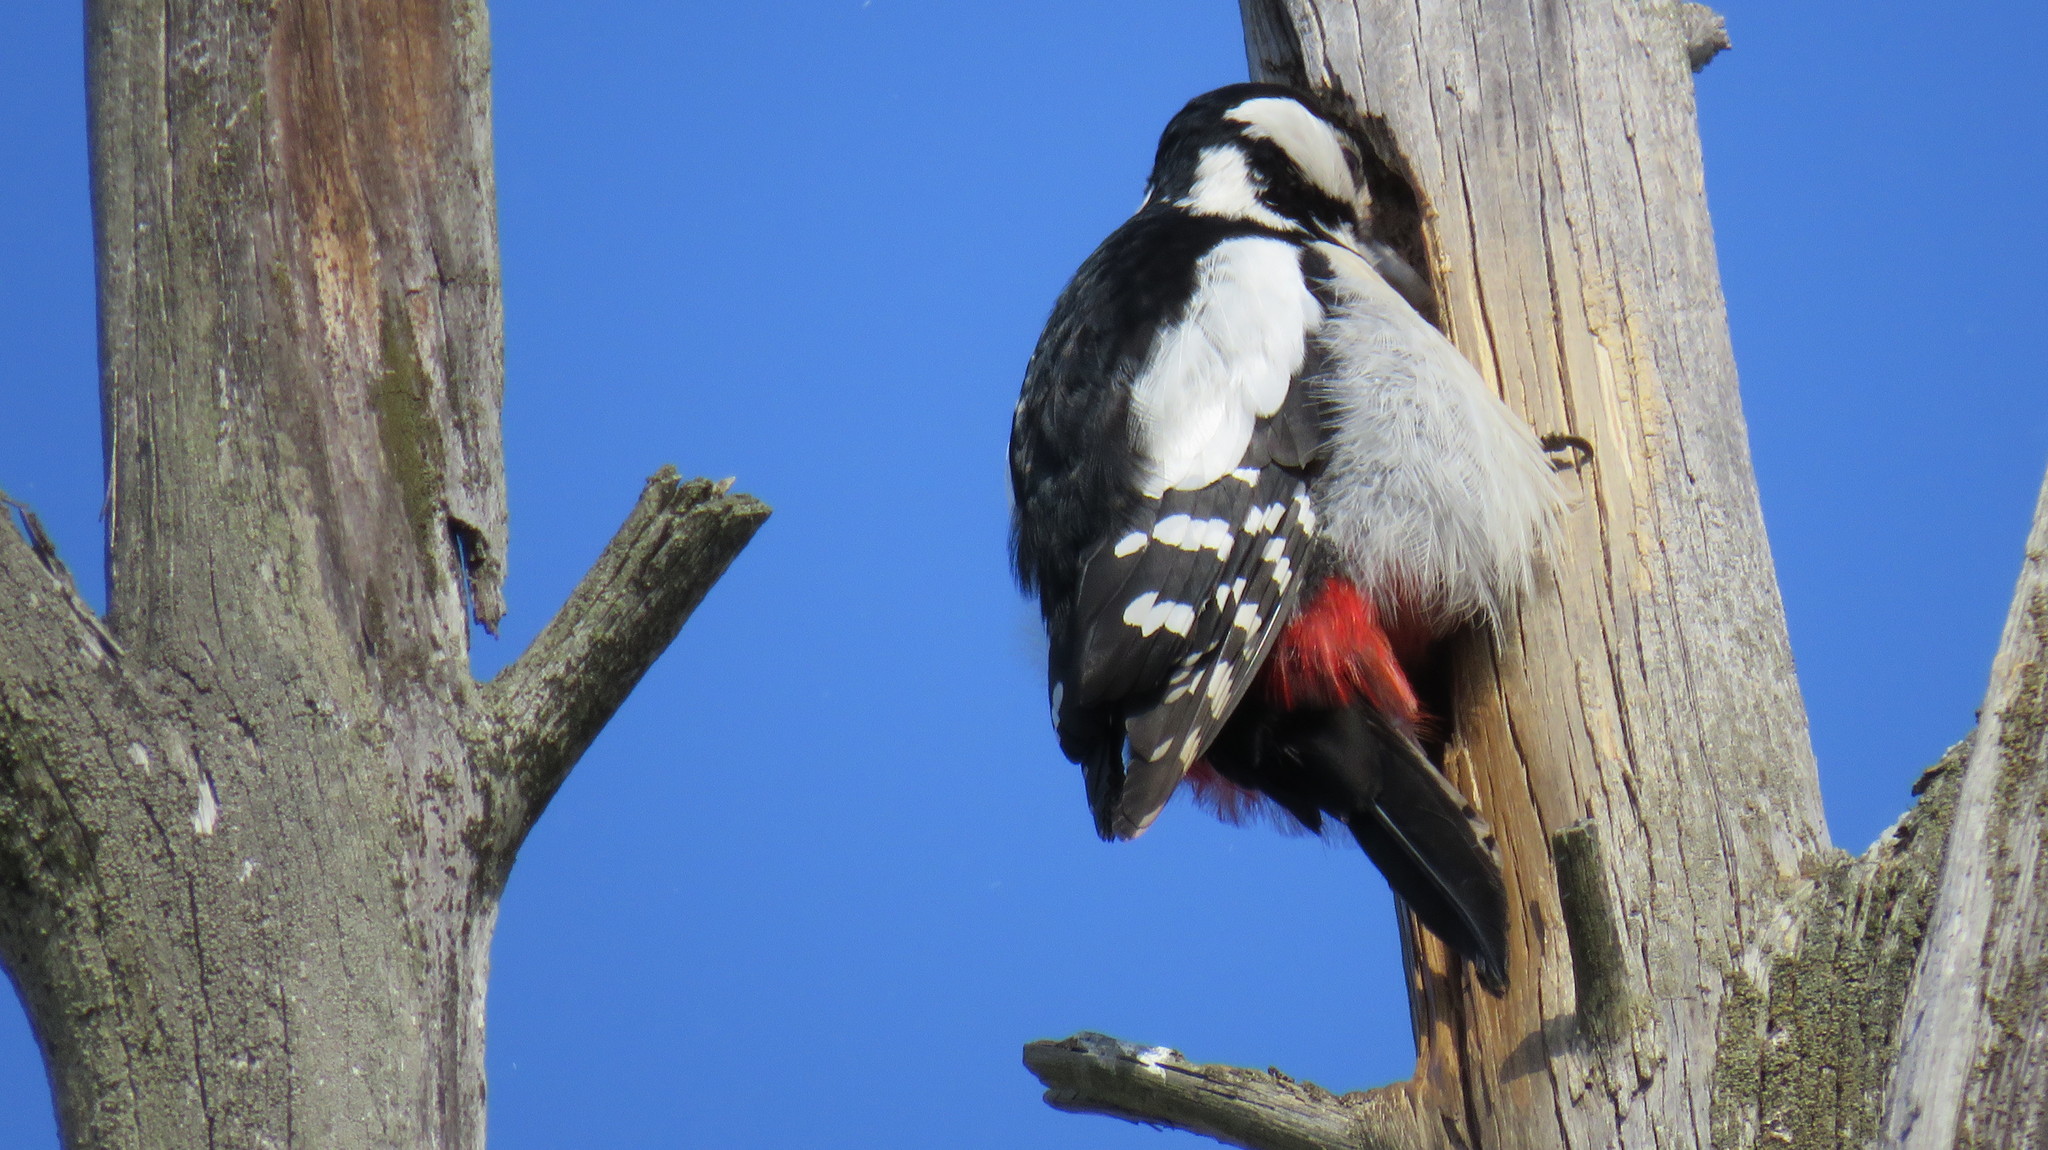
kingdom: Animalia
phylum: Chordata
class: Aves
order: Piciformes
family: Picidae
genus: Dendrocopos
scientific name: Dendrocopos major
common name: Great spotted woodpecker
